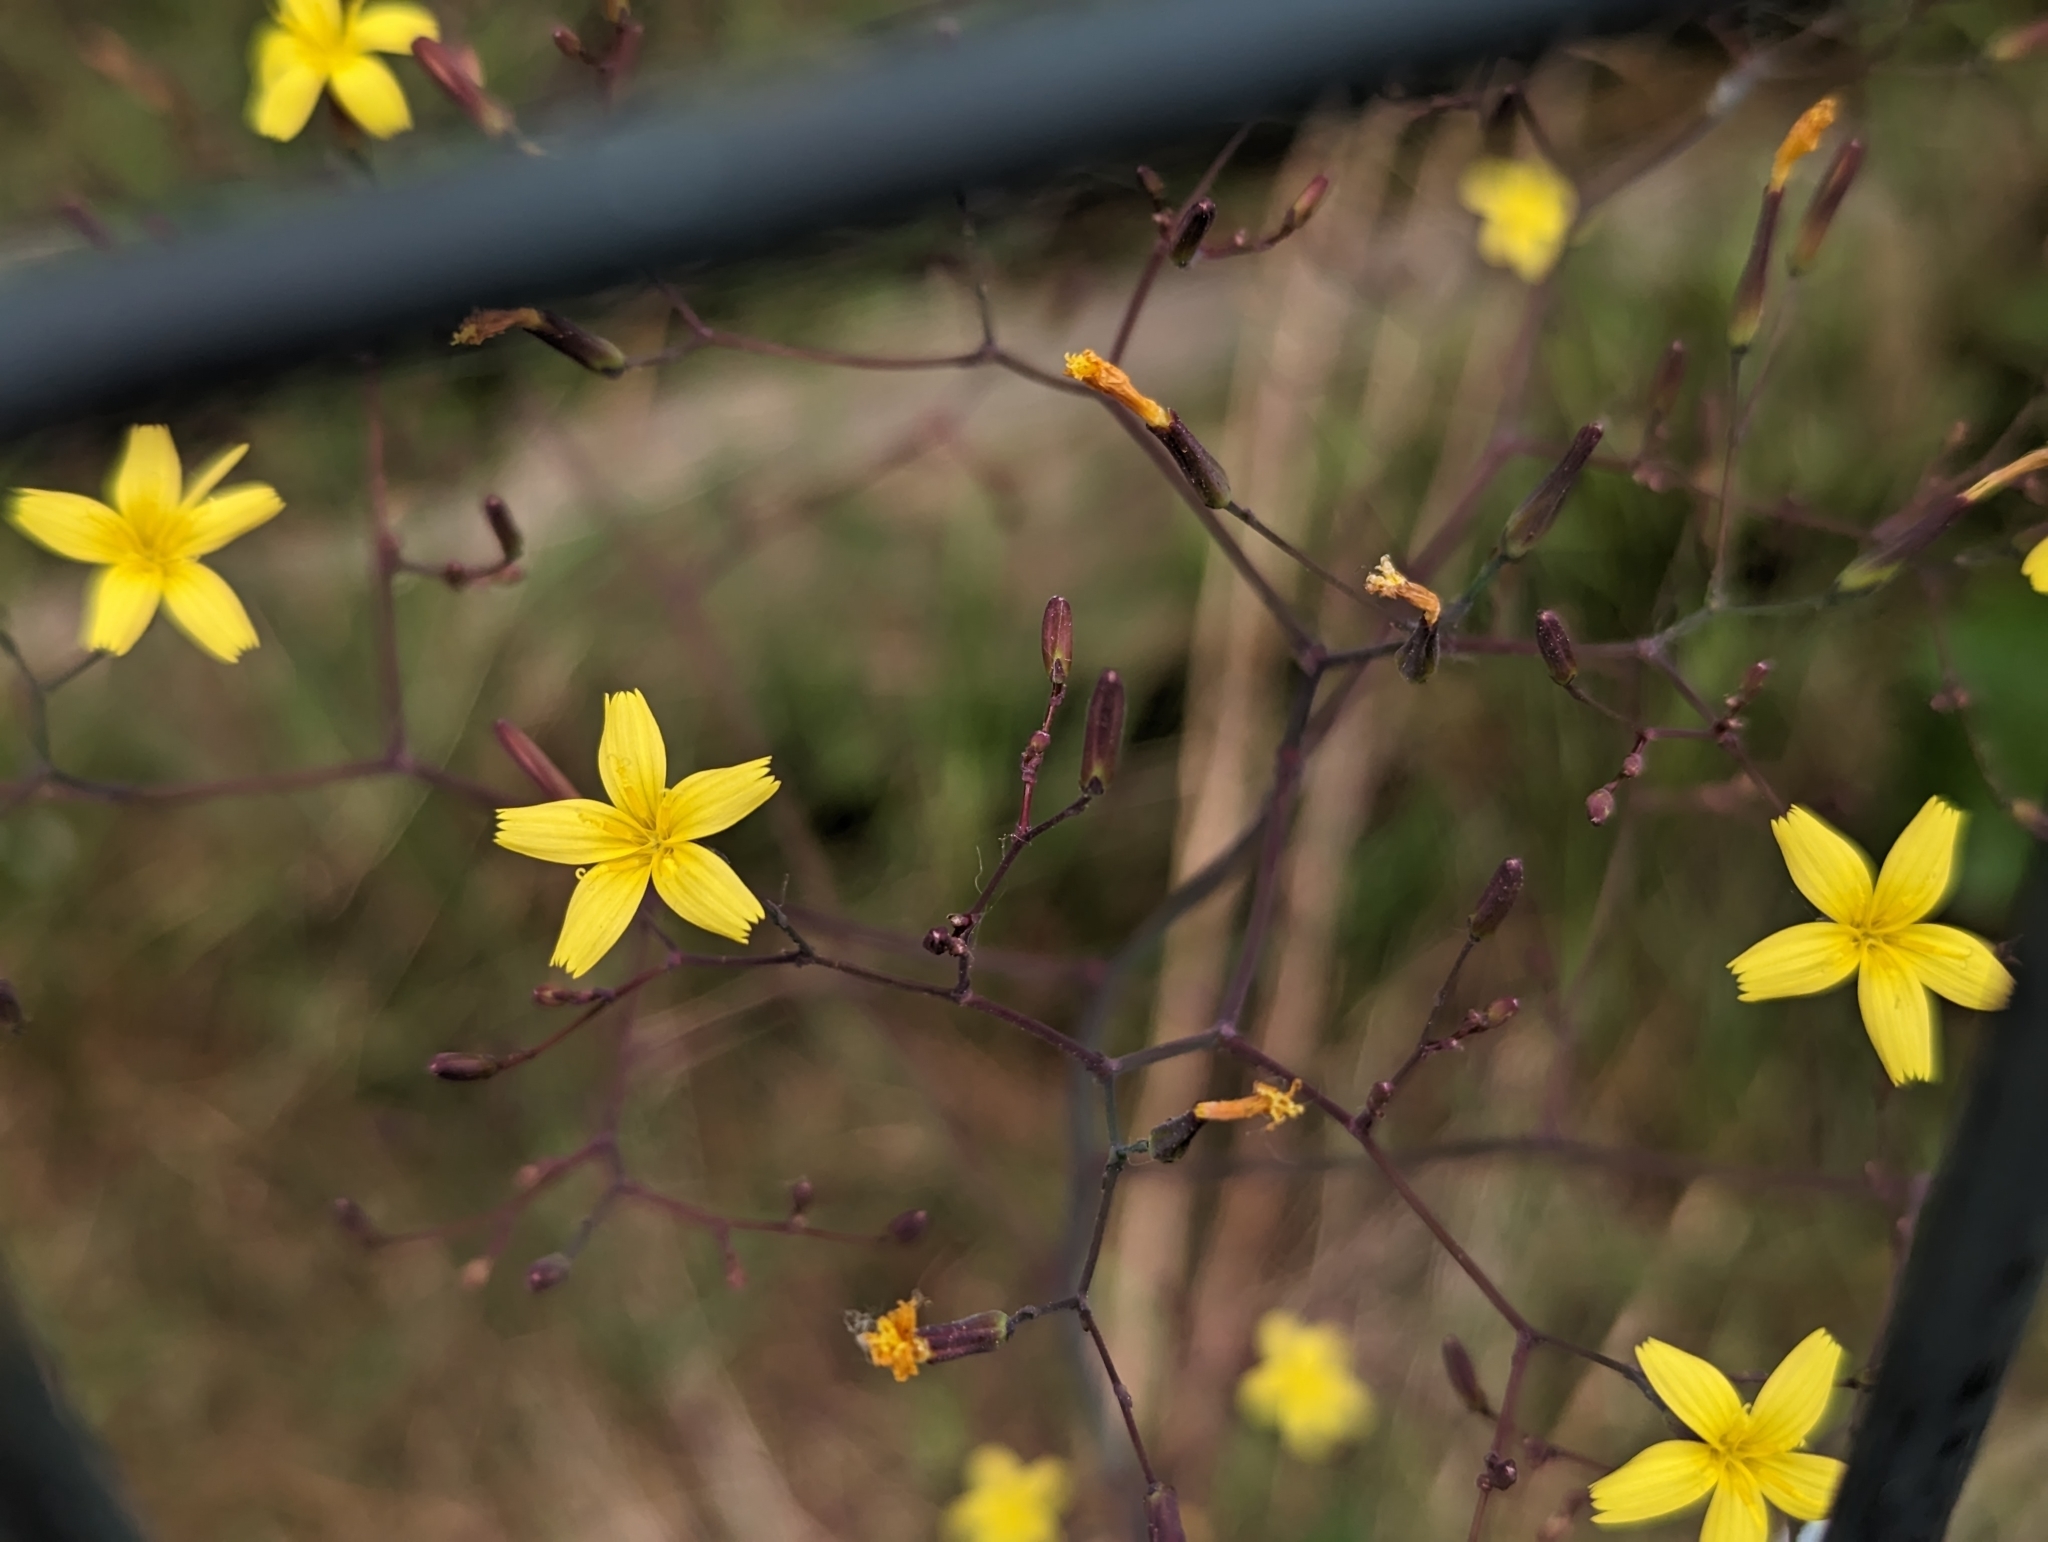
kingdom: Plantae
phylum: Tracheophyta
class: Magnoliopsida
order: Asterales
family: Asteraceae
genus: Mycelis
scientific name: Mycelis muralis
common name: Wall lettuce
